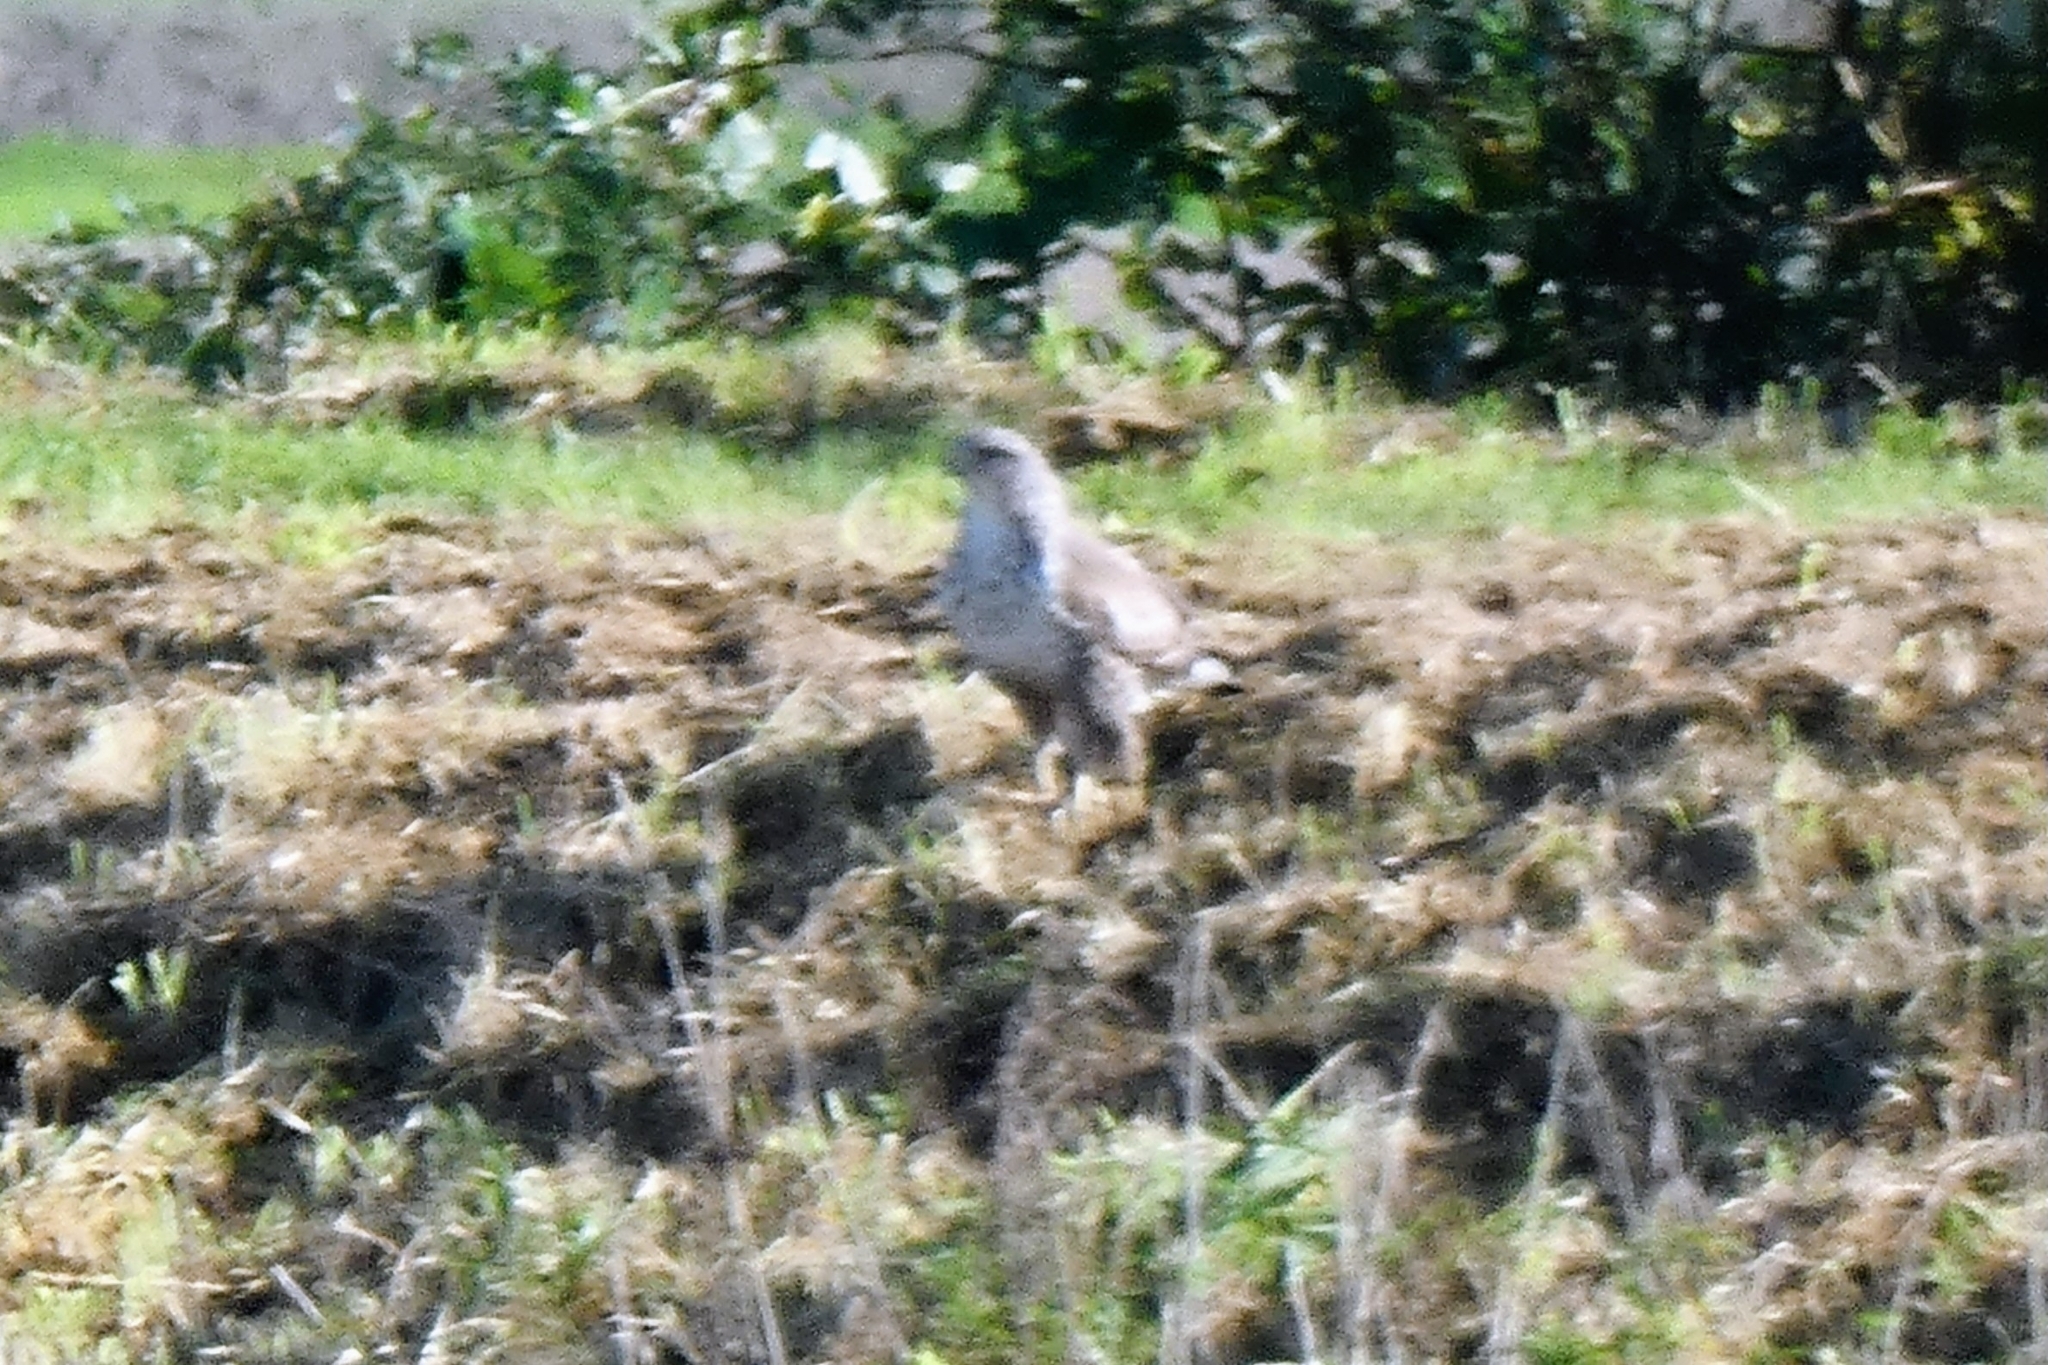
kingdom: Animalia
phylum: Chordata
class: Aves
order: Accipitriformes
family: Accipitridae
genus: Buteo
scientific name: Buteo buteo
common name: Common buzzard
